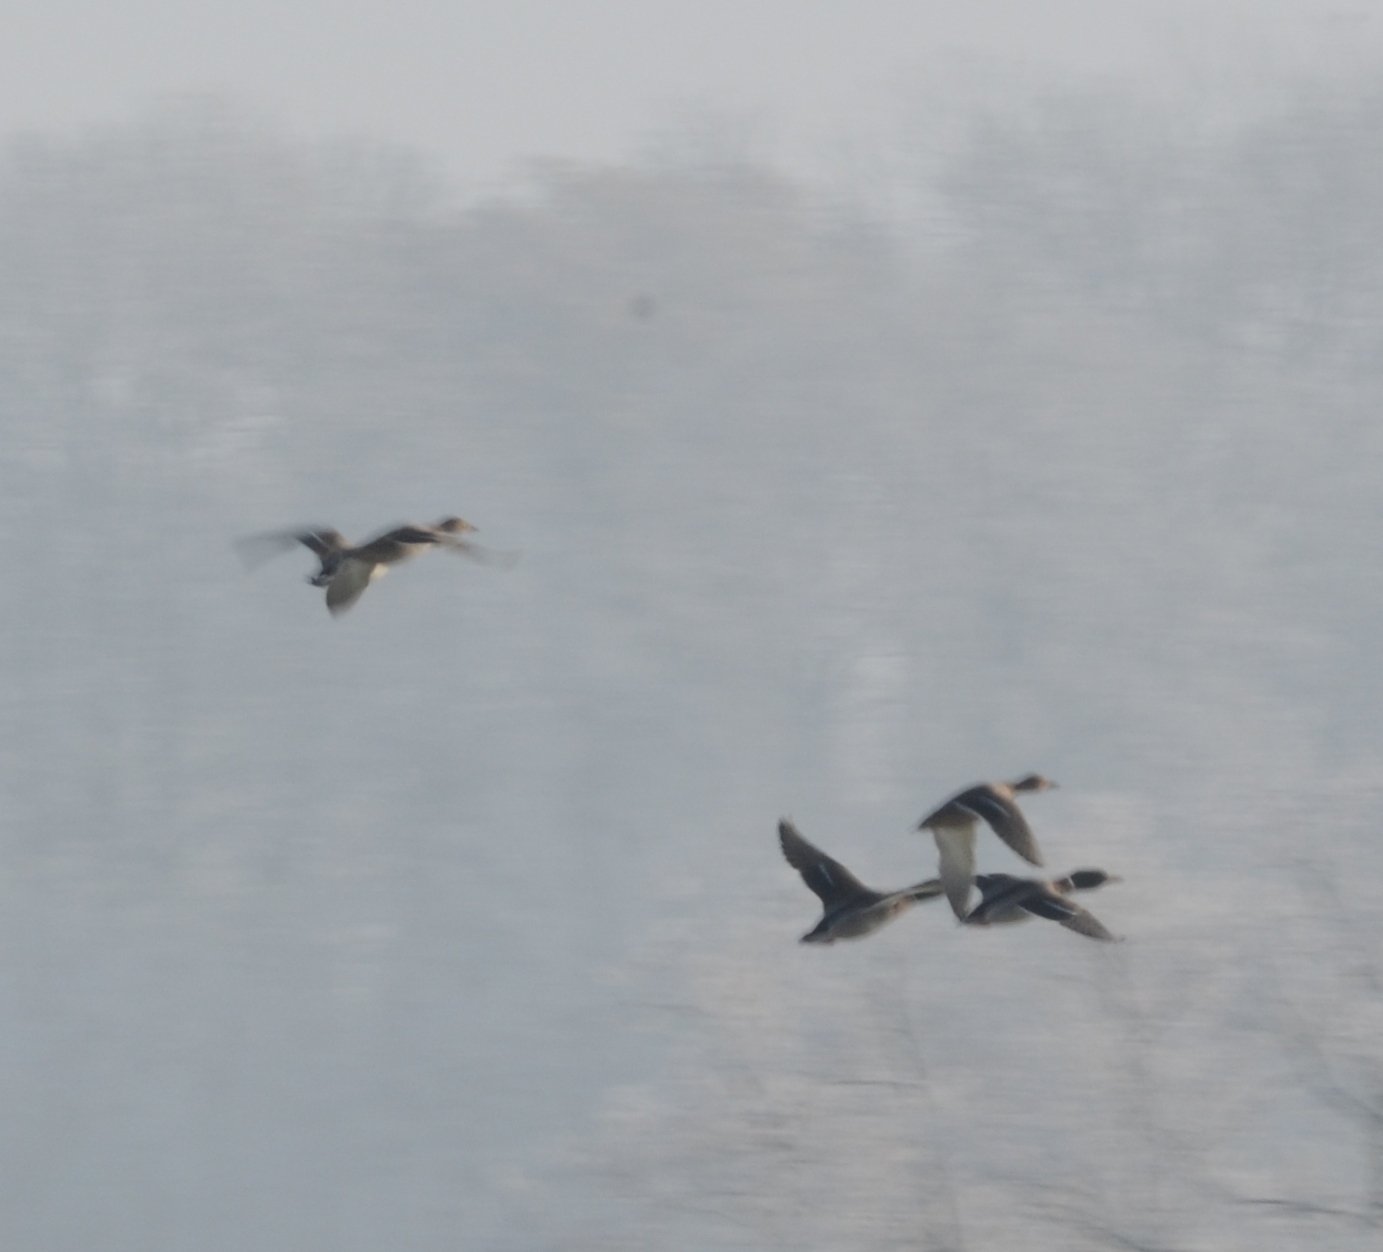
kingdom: Animalia
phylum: Chordata
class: Aves
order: Anseriformes
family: Anatidae
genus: Anas
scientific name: Anas platyrhynchos
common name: Mallard
